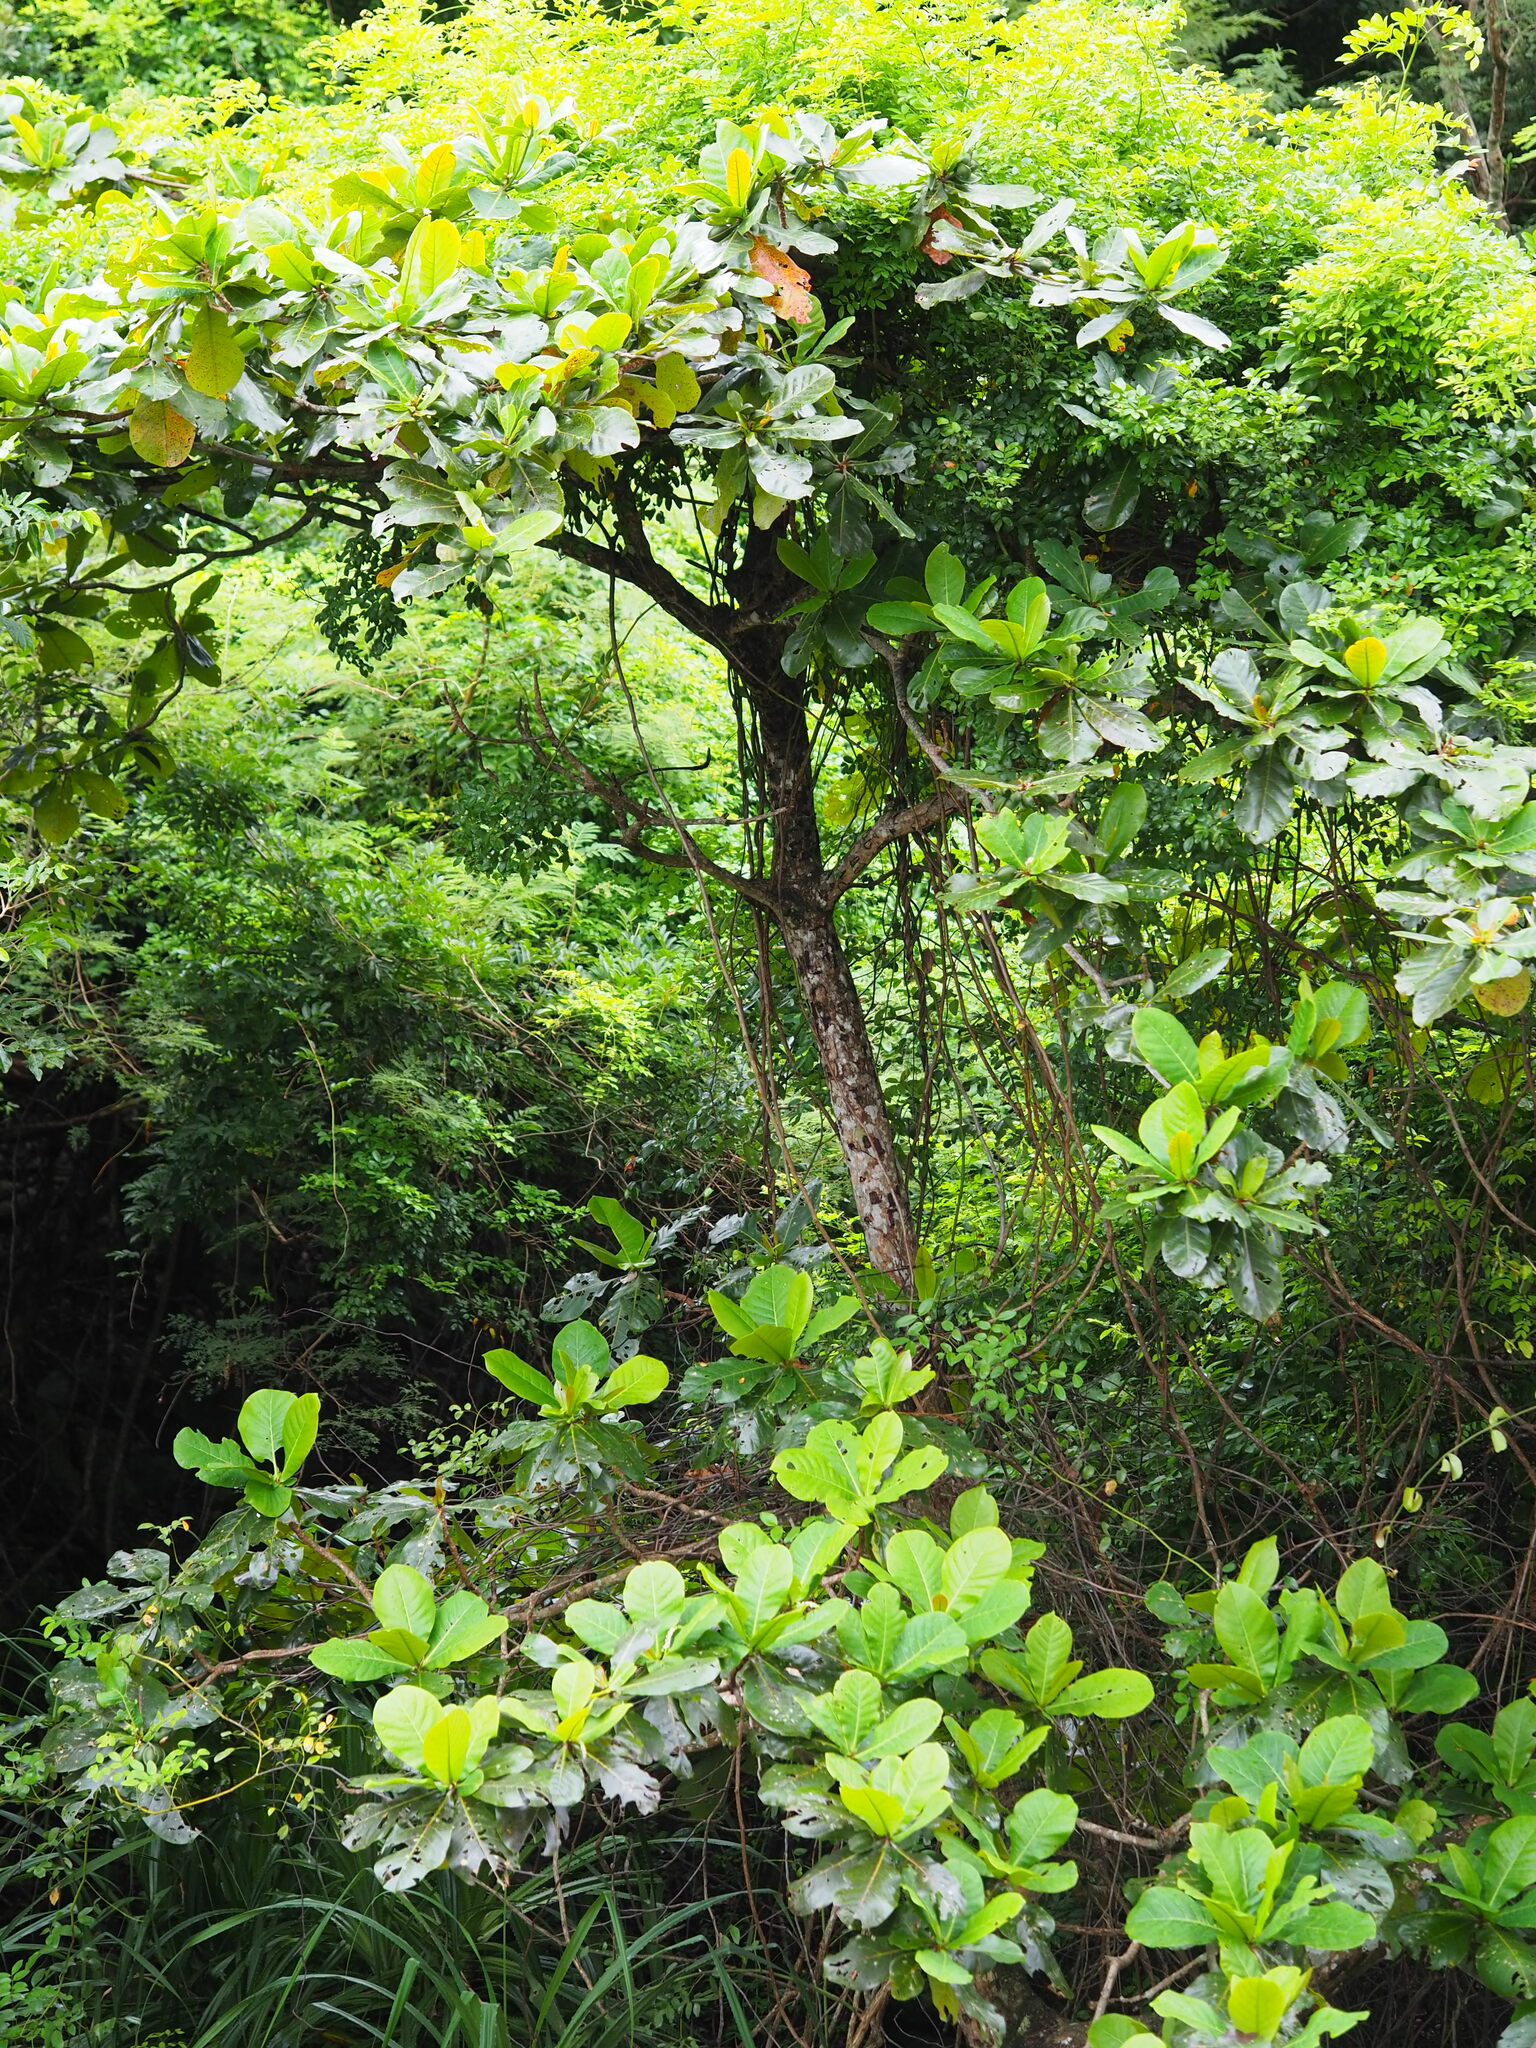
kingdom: Plantae
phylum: Tracheophyta
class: Magnoliopsida
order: Myrtales
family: Combretaceae
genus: Terminalia
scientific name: Terminalia catappa
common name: Tropical almond
